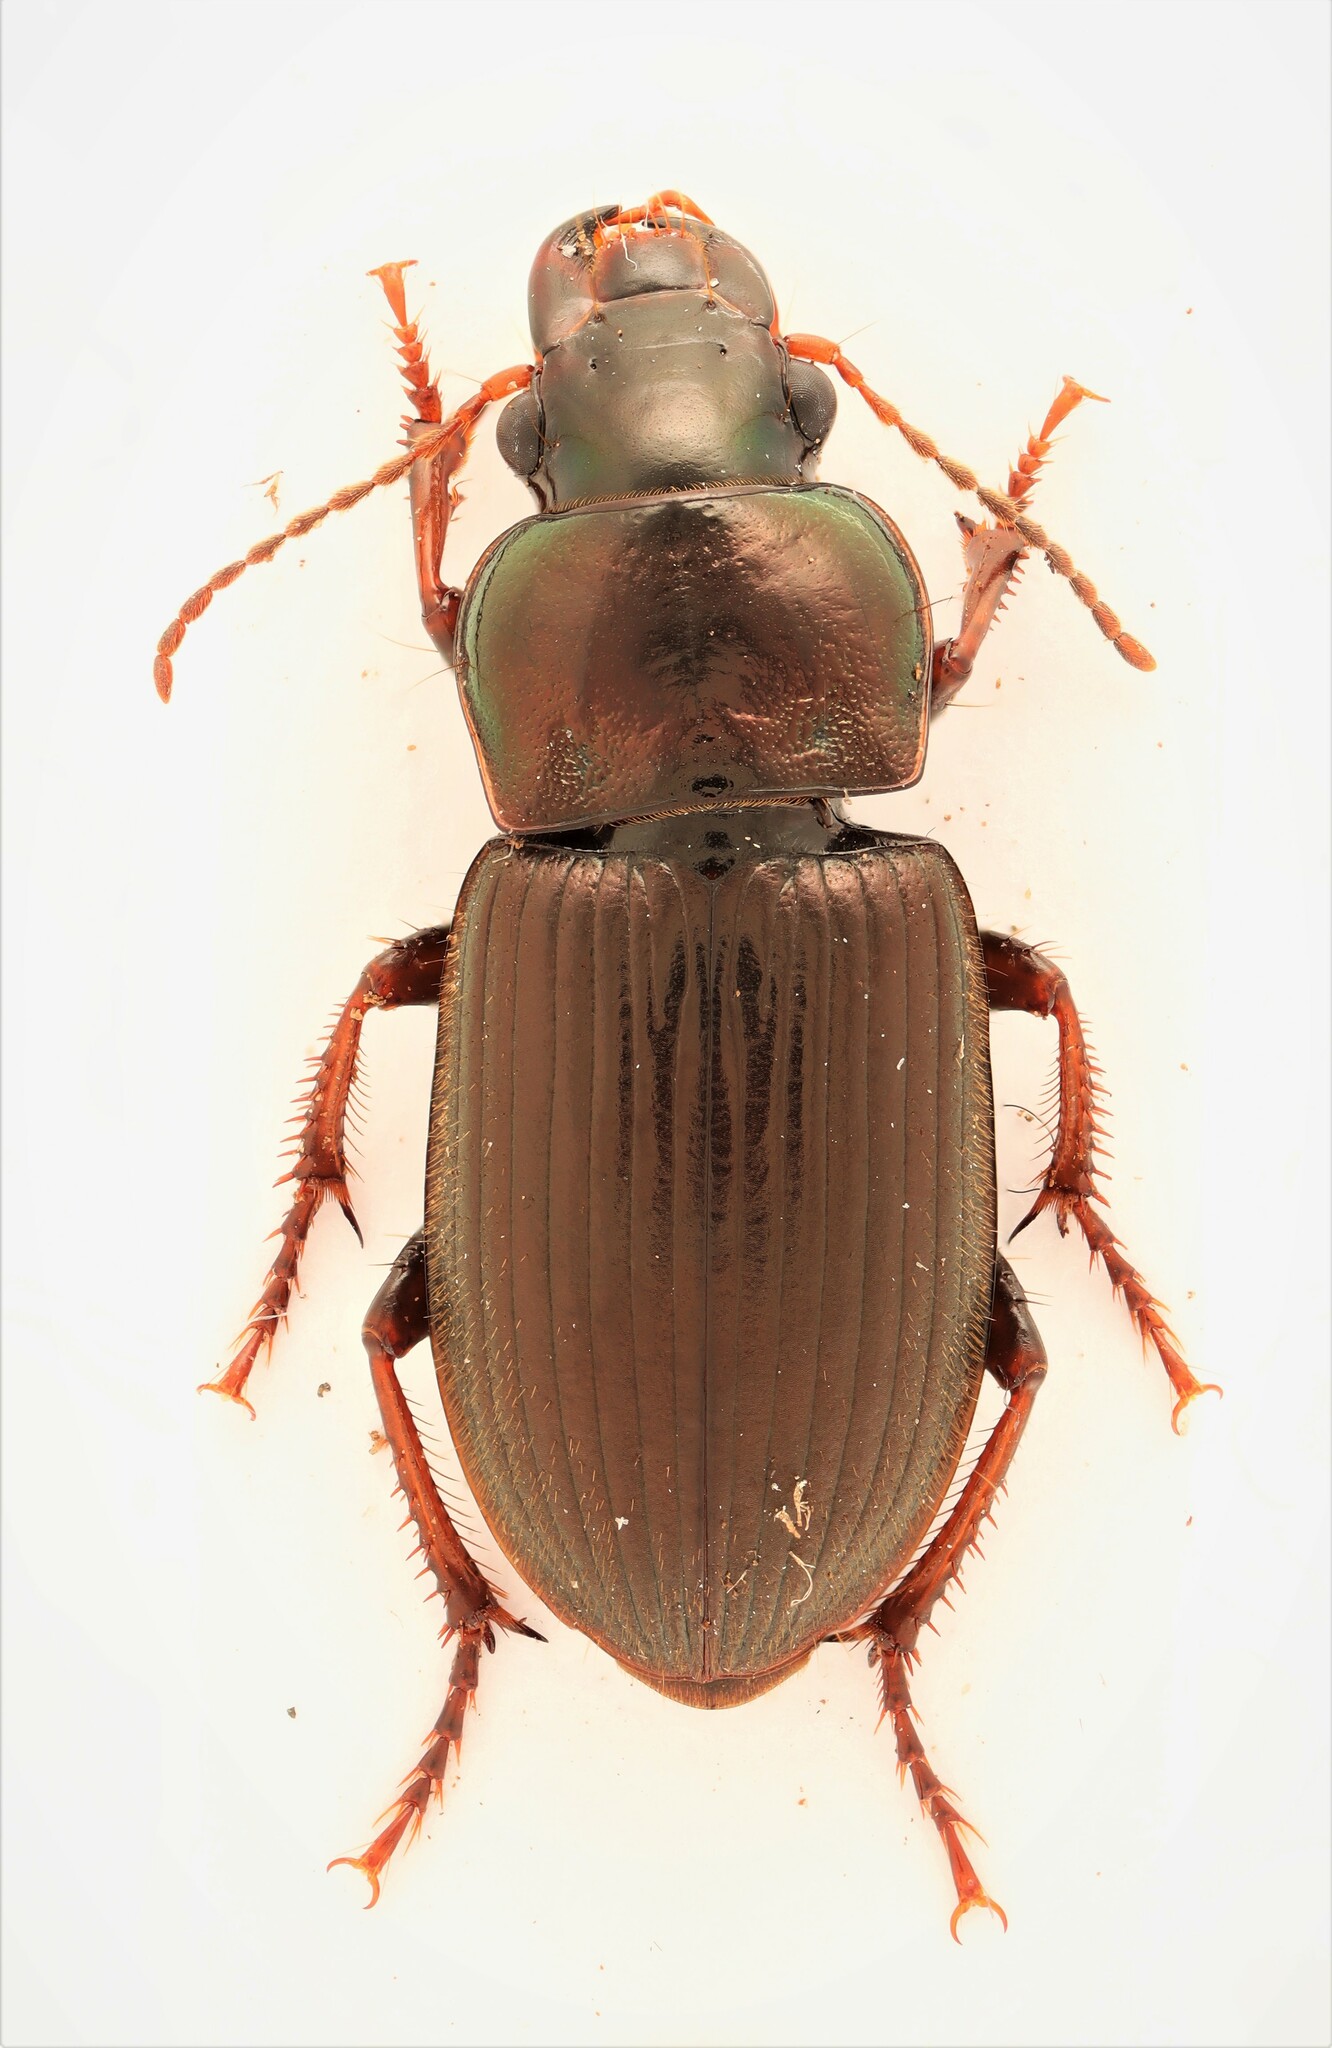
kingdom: Animalia
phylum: Arthropoda
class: Insecta
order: Coleoptera
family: Carabidae
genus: Harpalus
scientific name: Harpalus affinis
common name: Polychrome harp ground beetle
